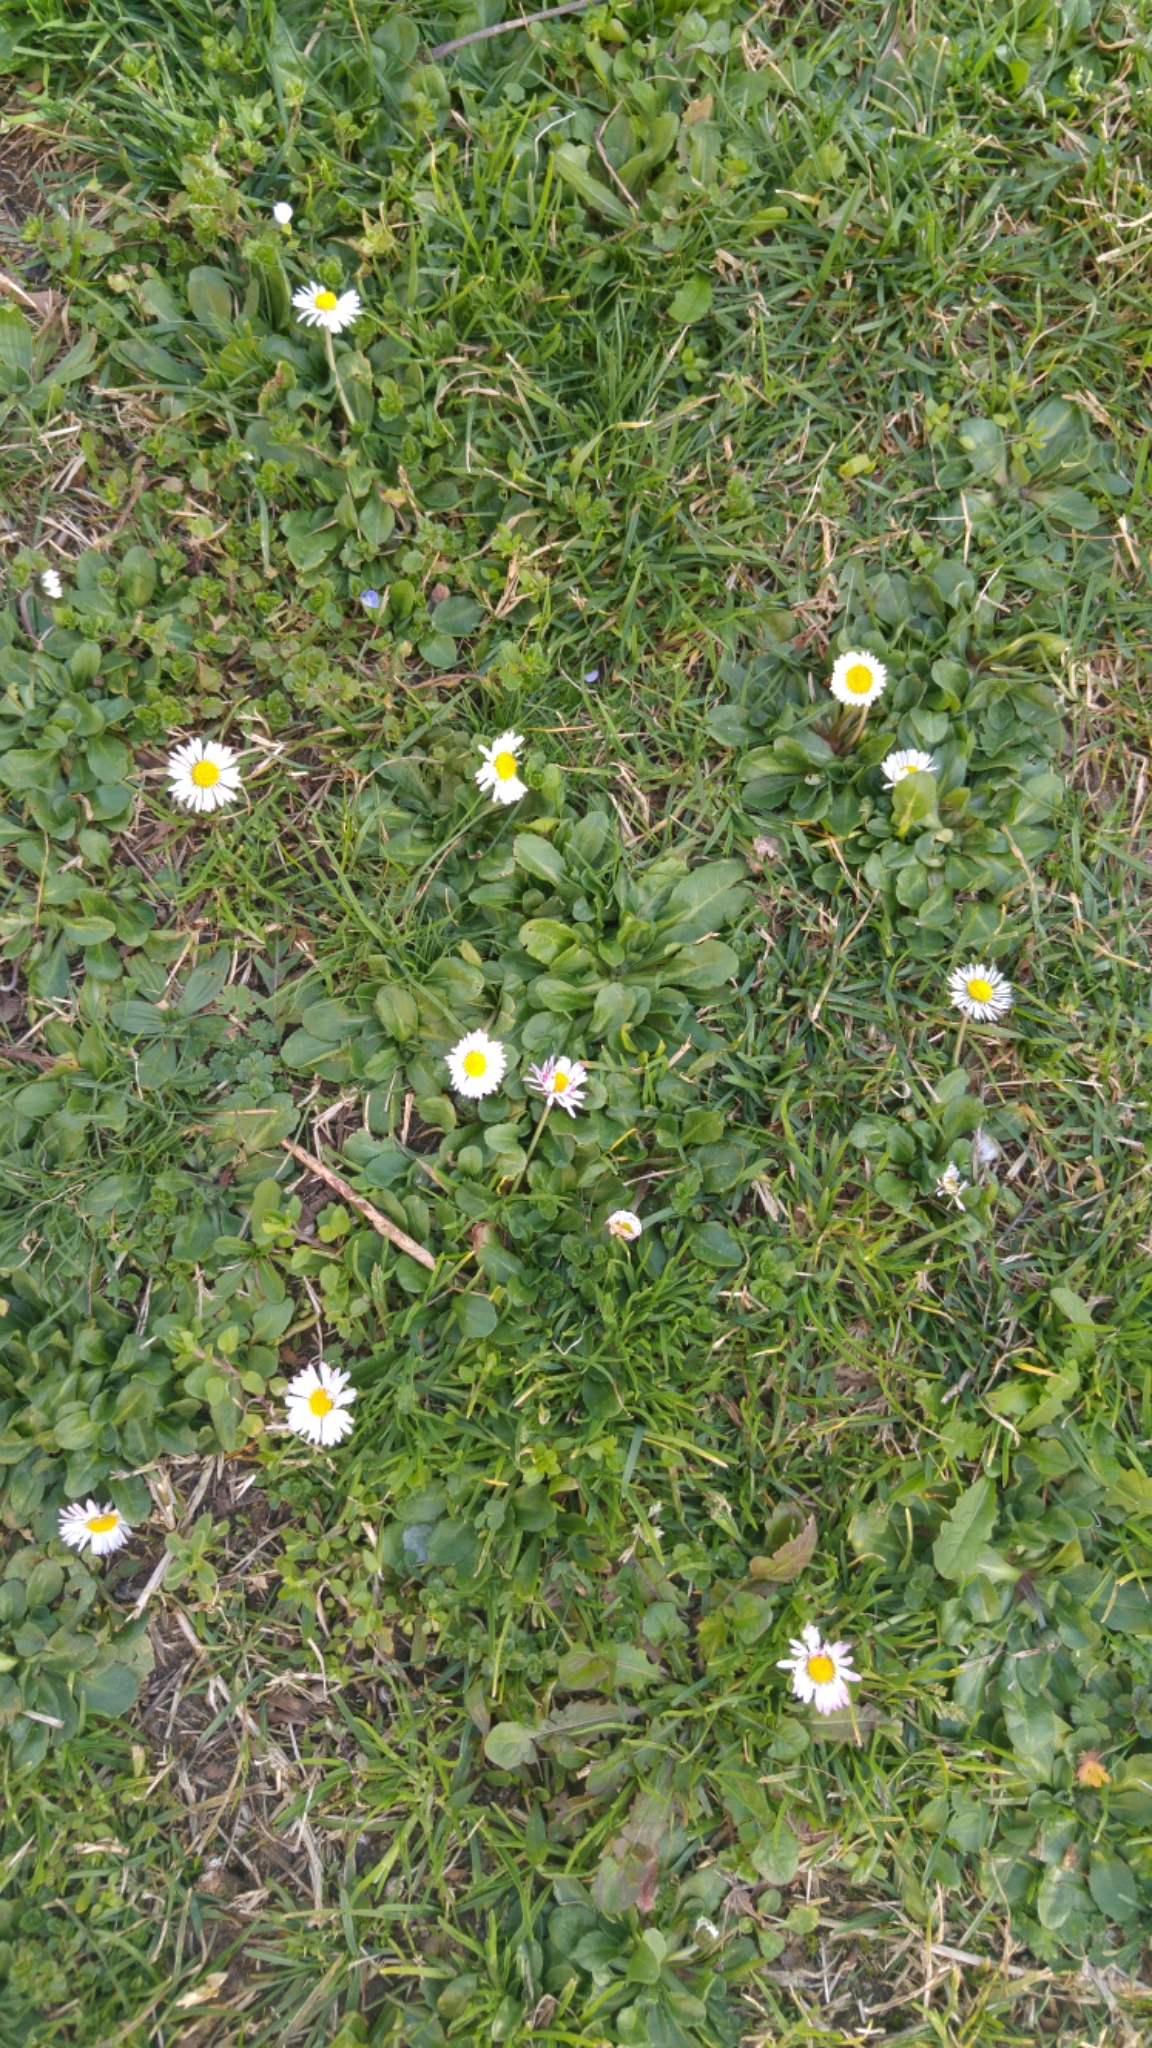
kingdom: Plantae
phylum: Tracheophyta
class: Magnoliopsida
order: Caryophyllales
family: Caryophyllaceae
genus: Stellaria
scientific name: Stellaria media
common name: Common chickweed
